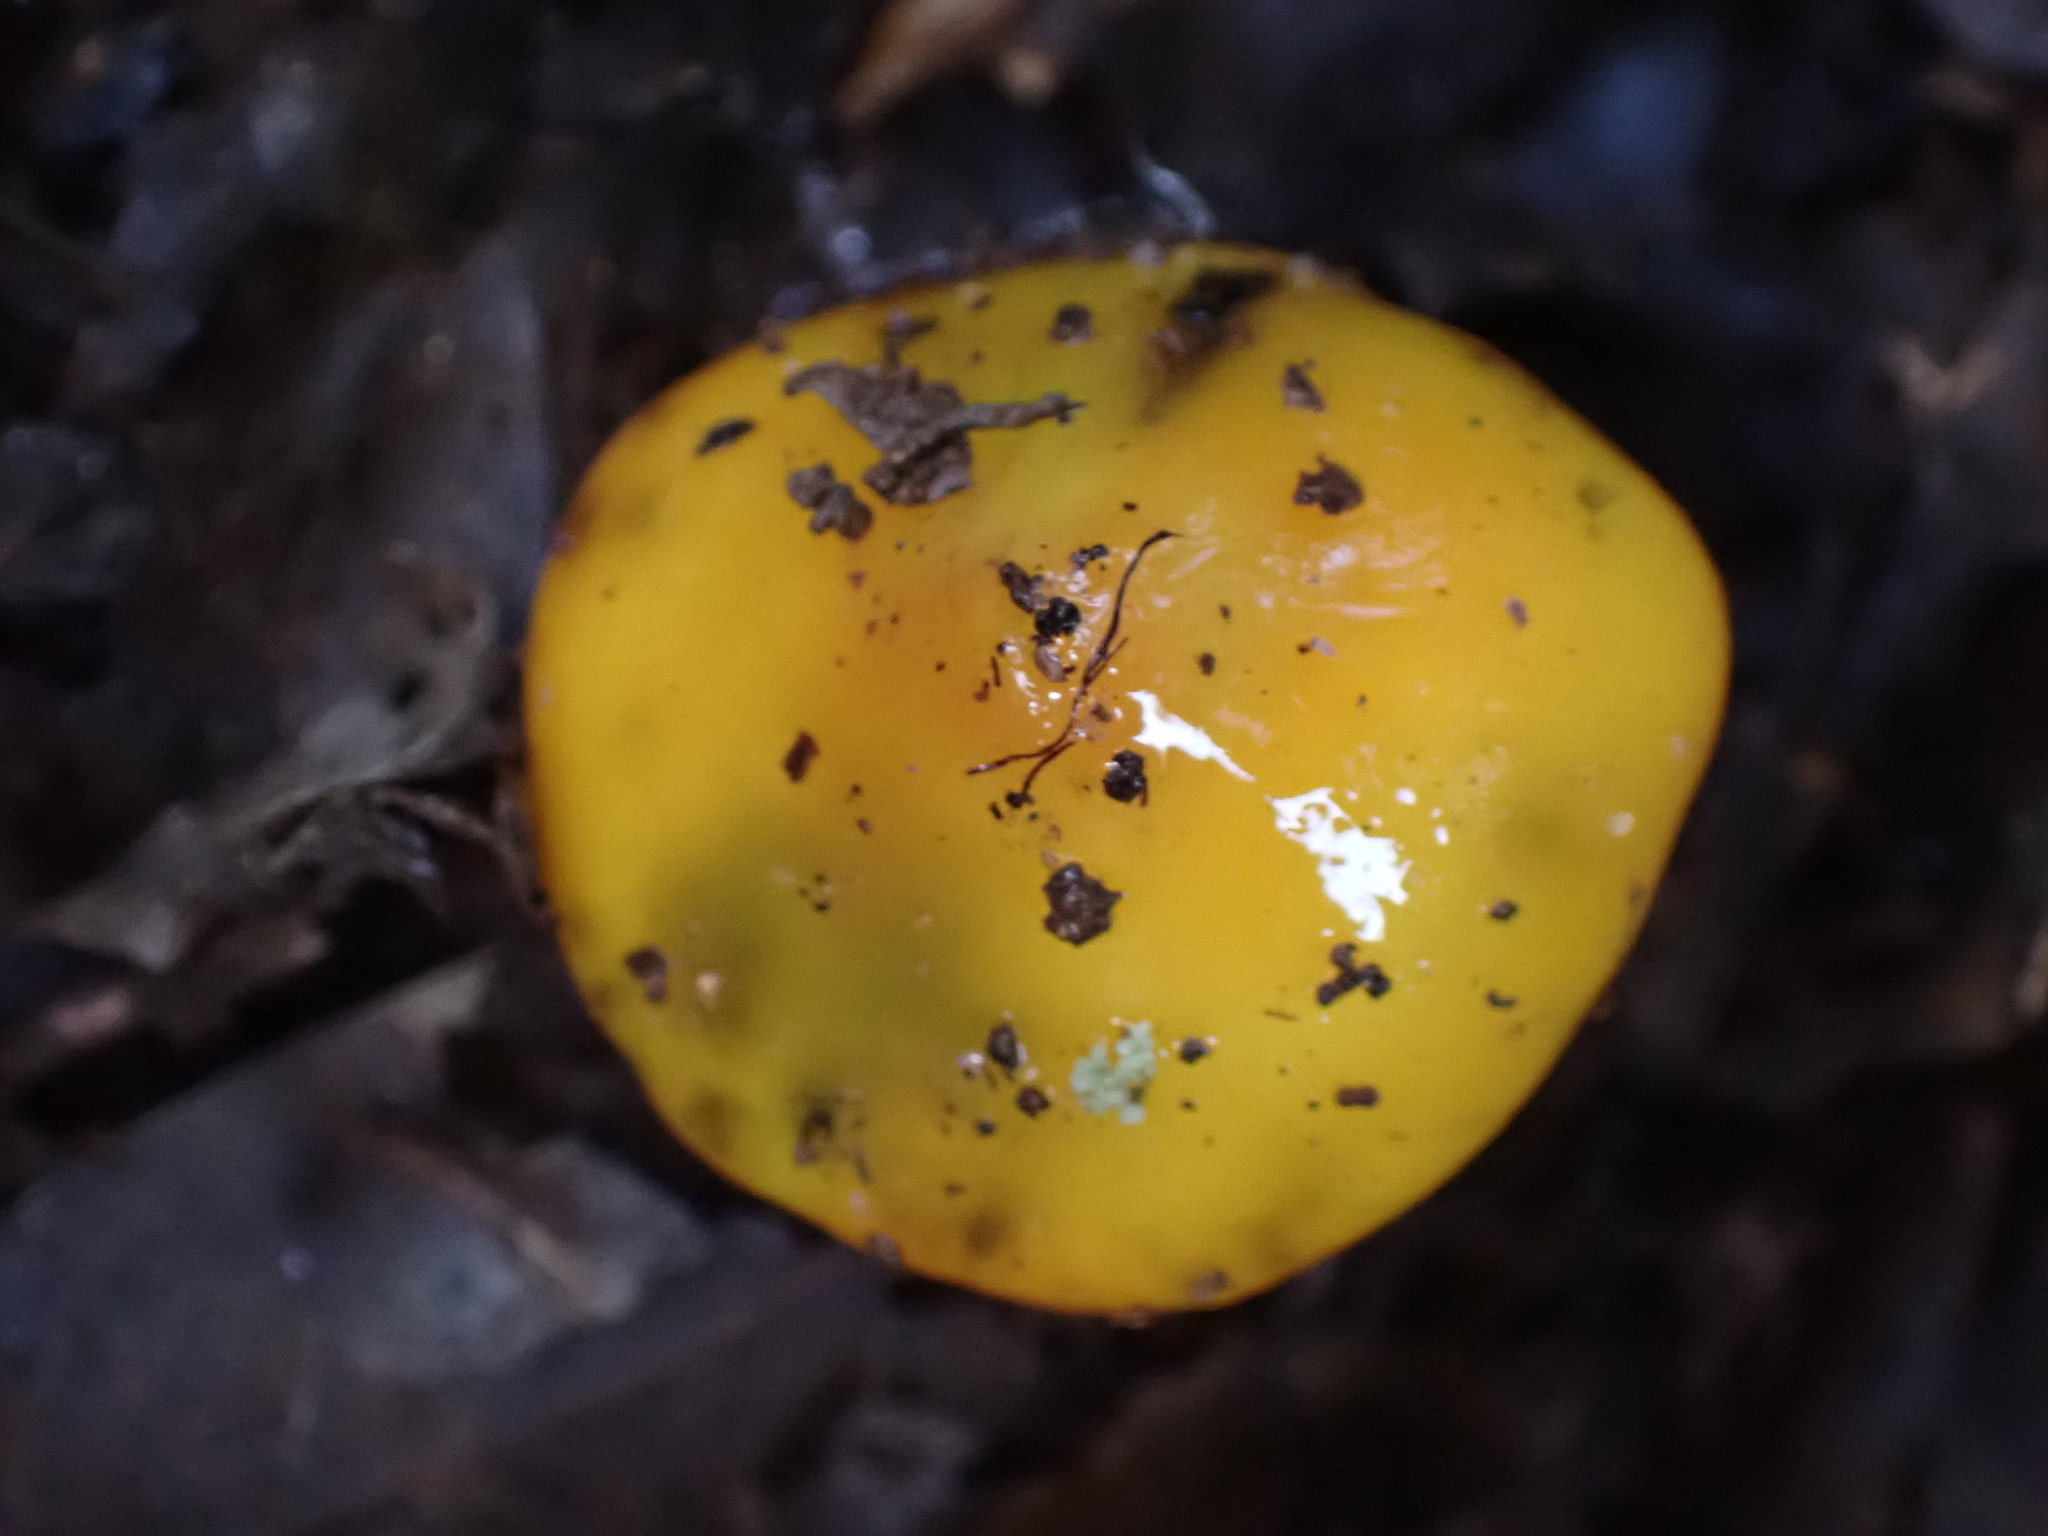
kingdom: Fungi
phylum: Basidiomycota
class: Agaricomycetes
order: Agaricales
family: Hygrophoraceae
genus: Hygrocybe
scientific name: Hygrocybe flavescens
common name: Golden waxy cap
